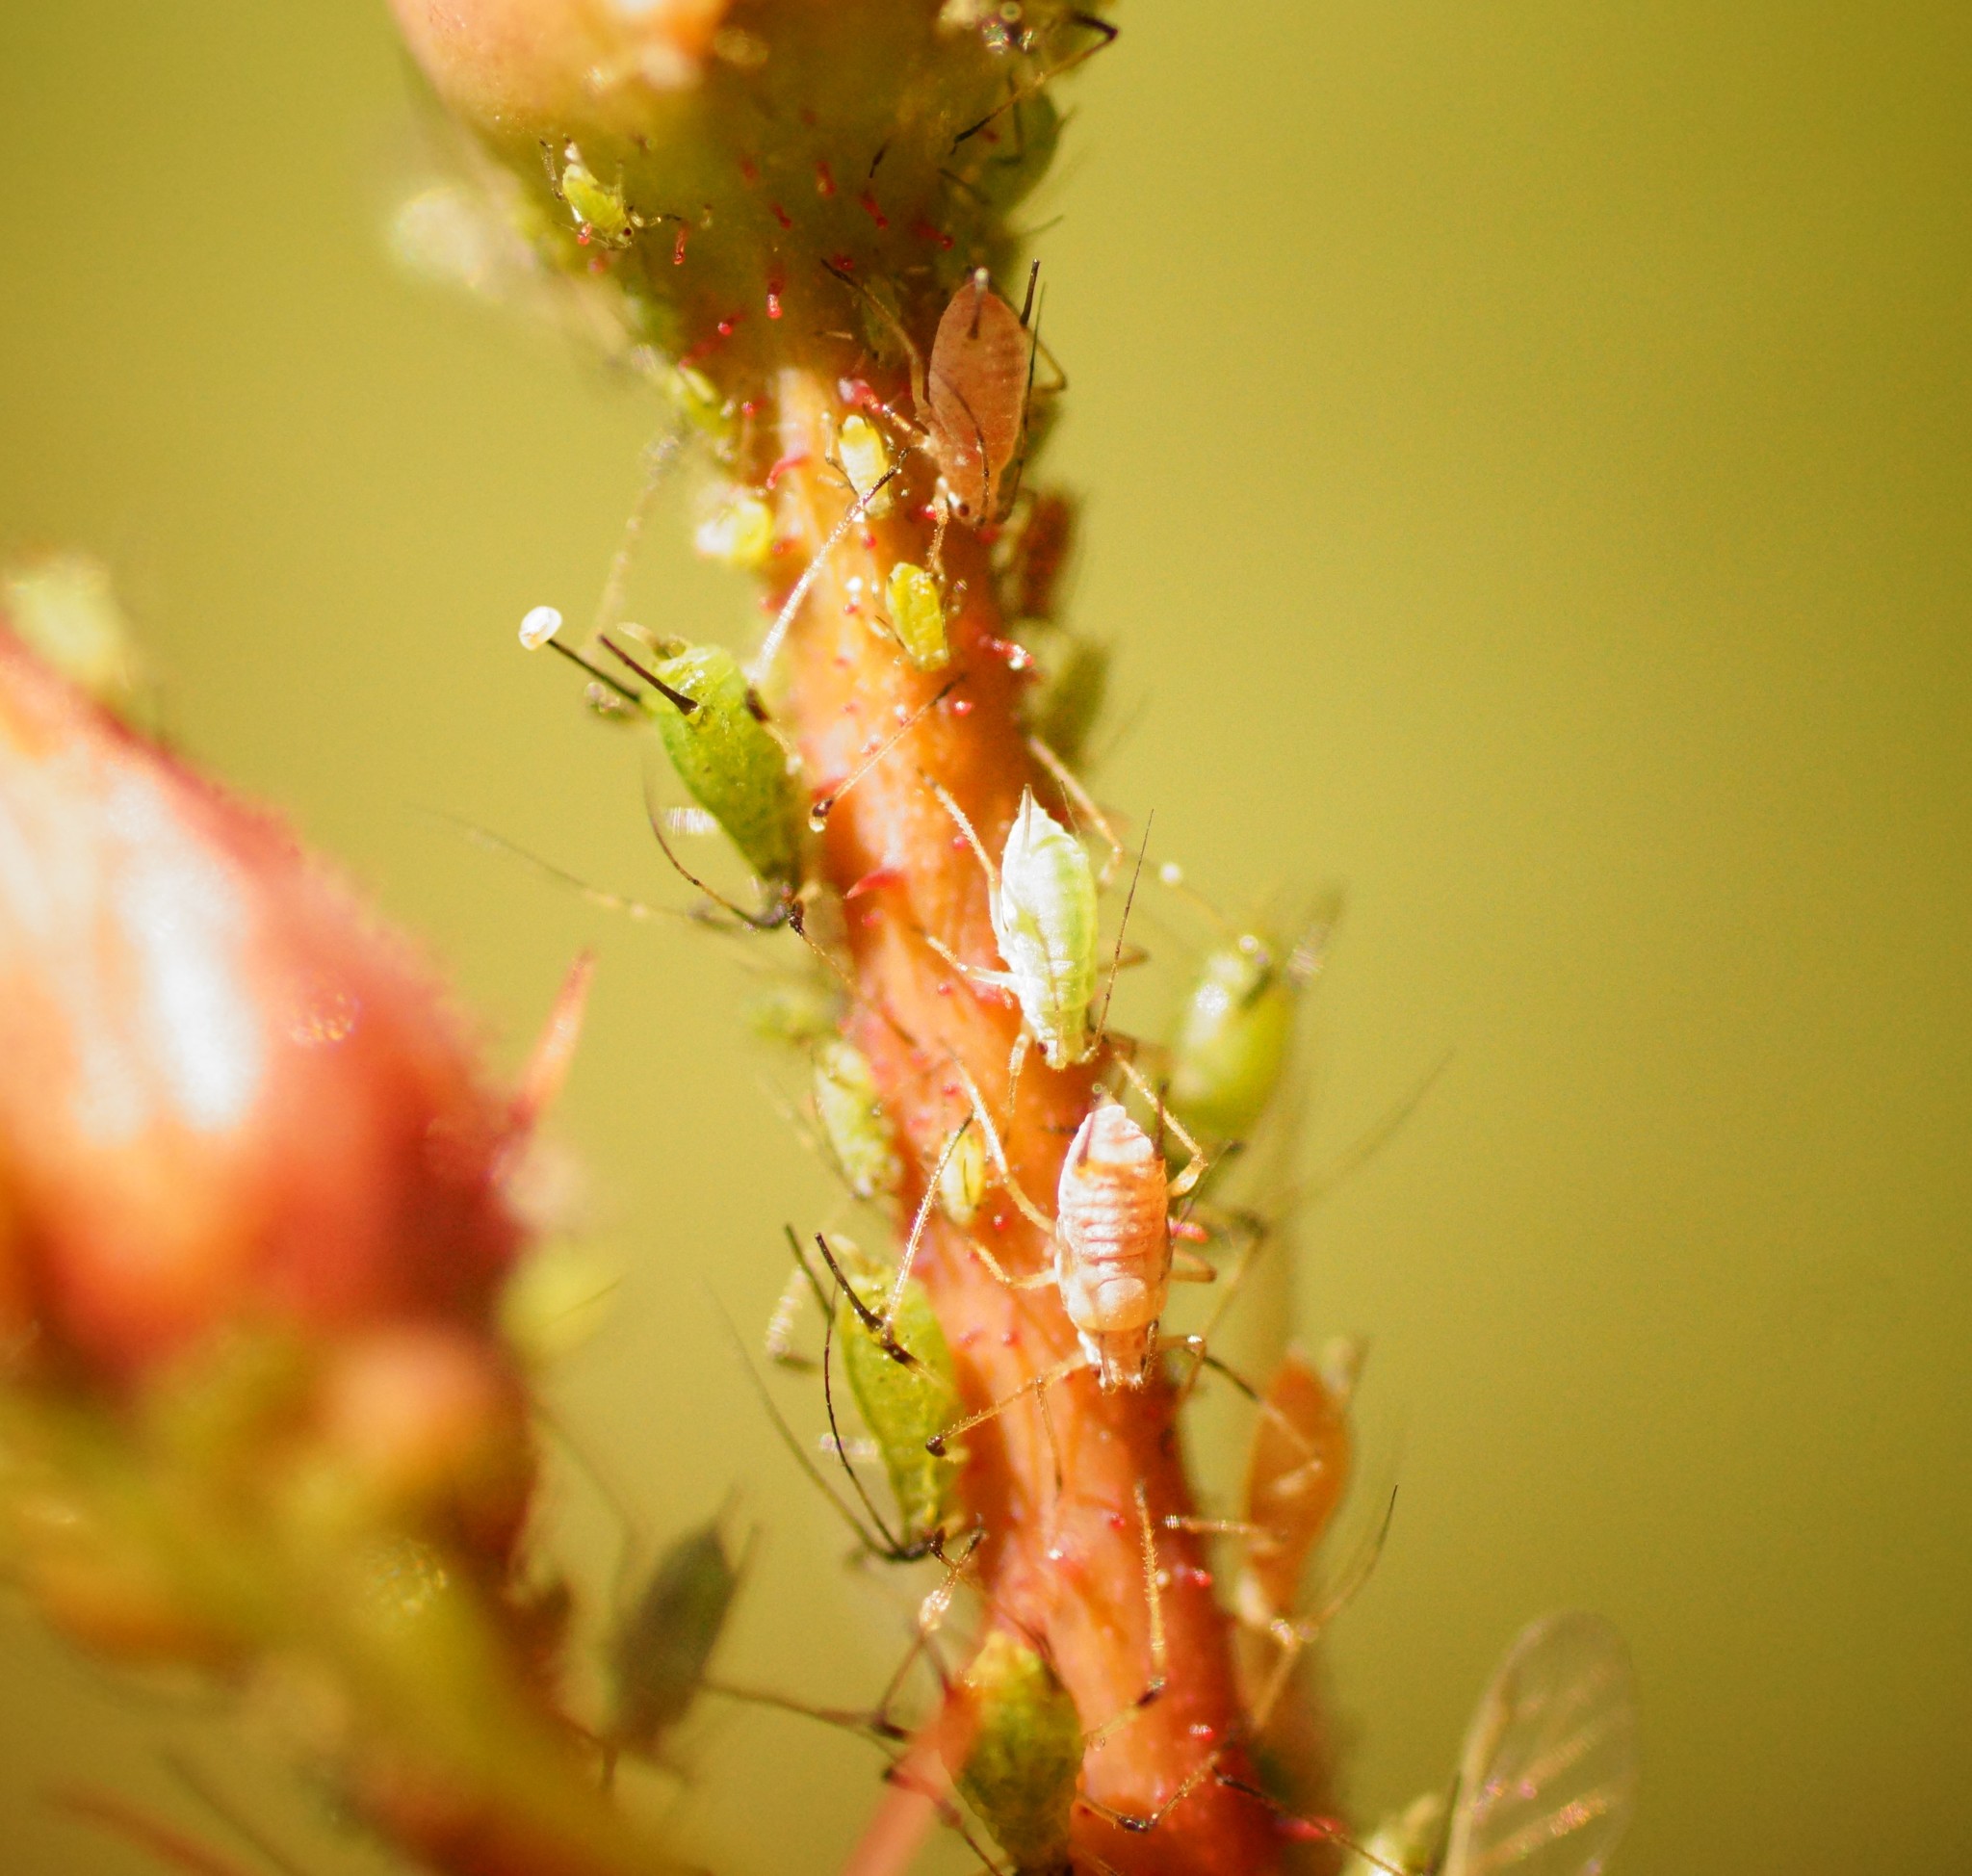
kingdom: Animalia
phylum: Arthropoda
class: Insecta
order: Hemiptera
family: Aphididae
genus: Macrosiphum
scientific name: Macrosiphum rosae
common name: Rose aphid
